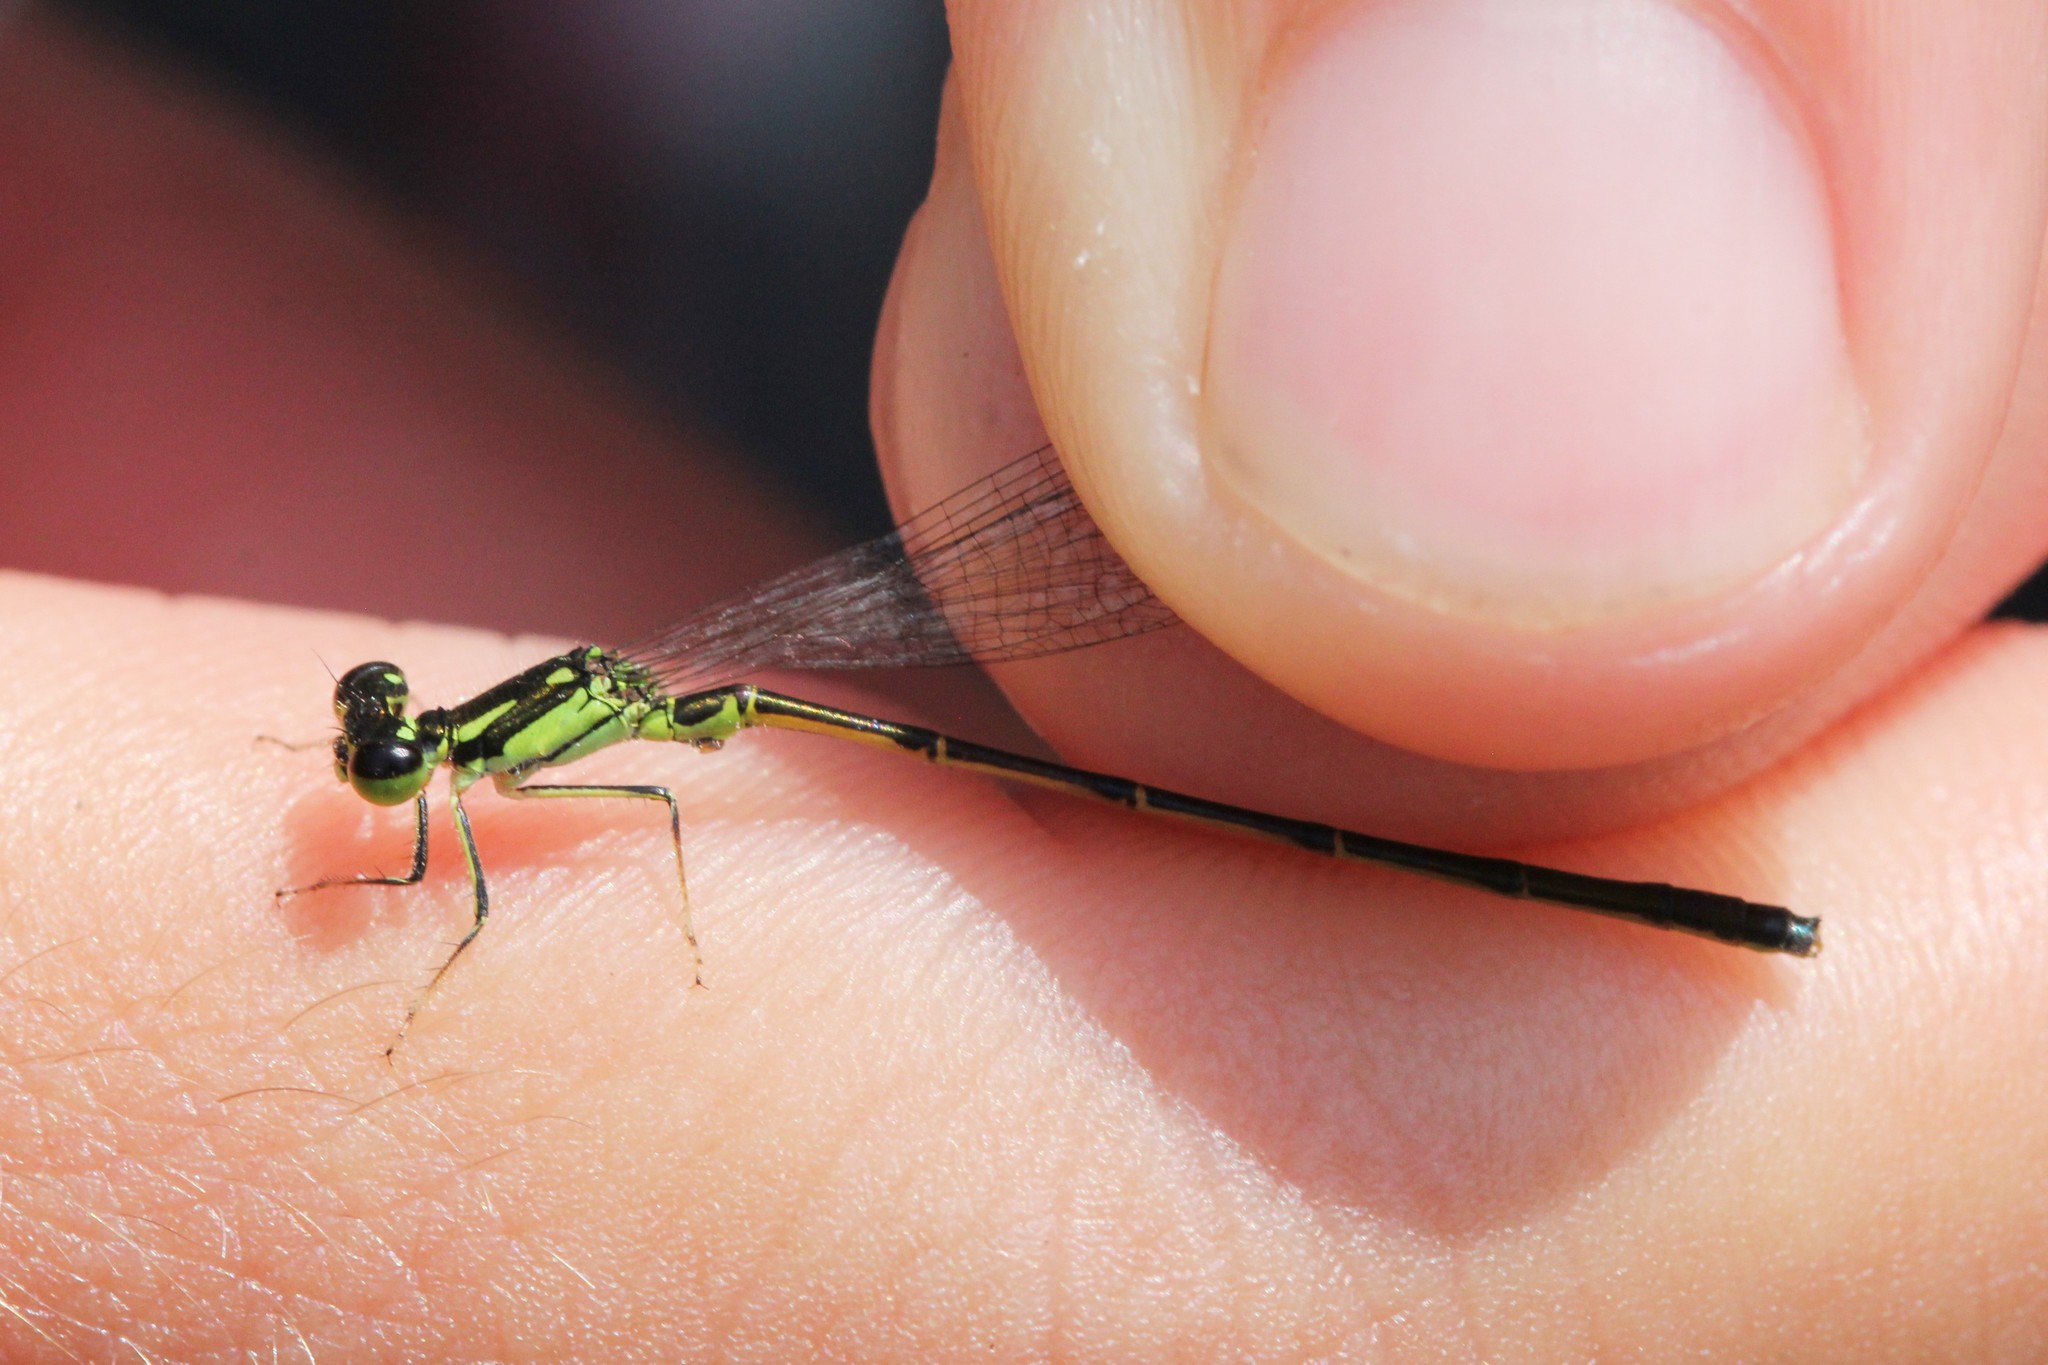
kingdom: Animalia
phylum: Arthropoda
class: Insecta
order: Odonata
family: Coenagrionidae
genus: Ischnura
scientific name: Ischnura posita
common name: Fragile forktail
